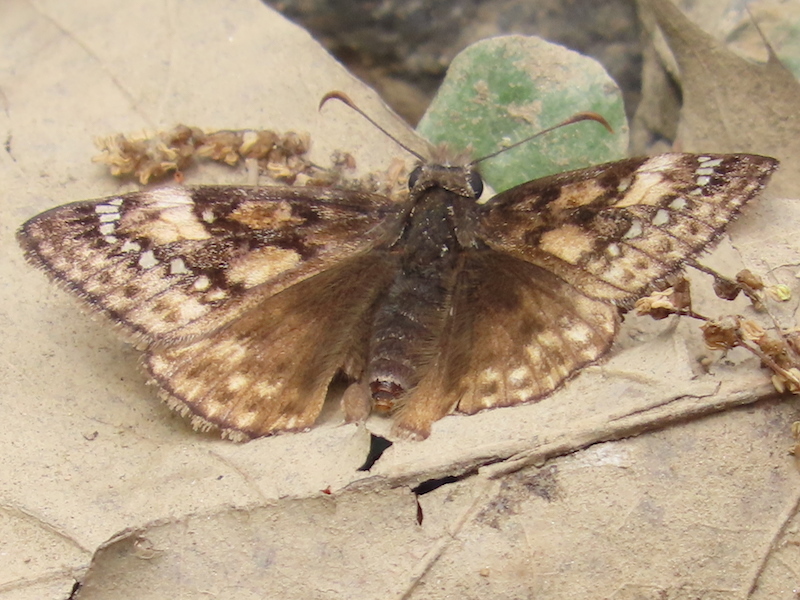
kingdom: Animalia
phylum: Arthropoda
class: Insecta
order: Lepidoptera
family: Hesperiidae
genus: Erynnis
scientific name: Erynnis juvenalis
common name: Juvenal's duskywing
